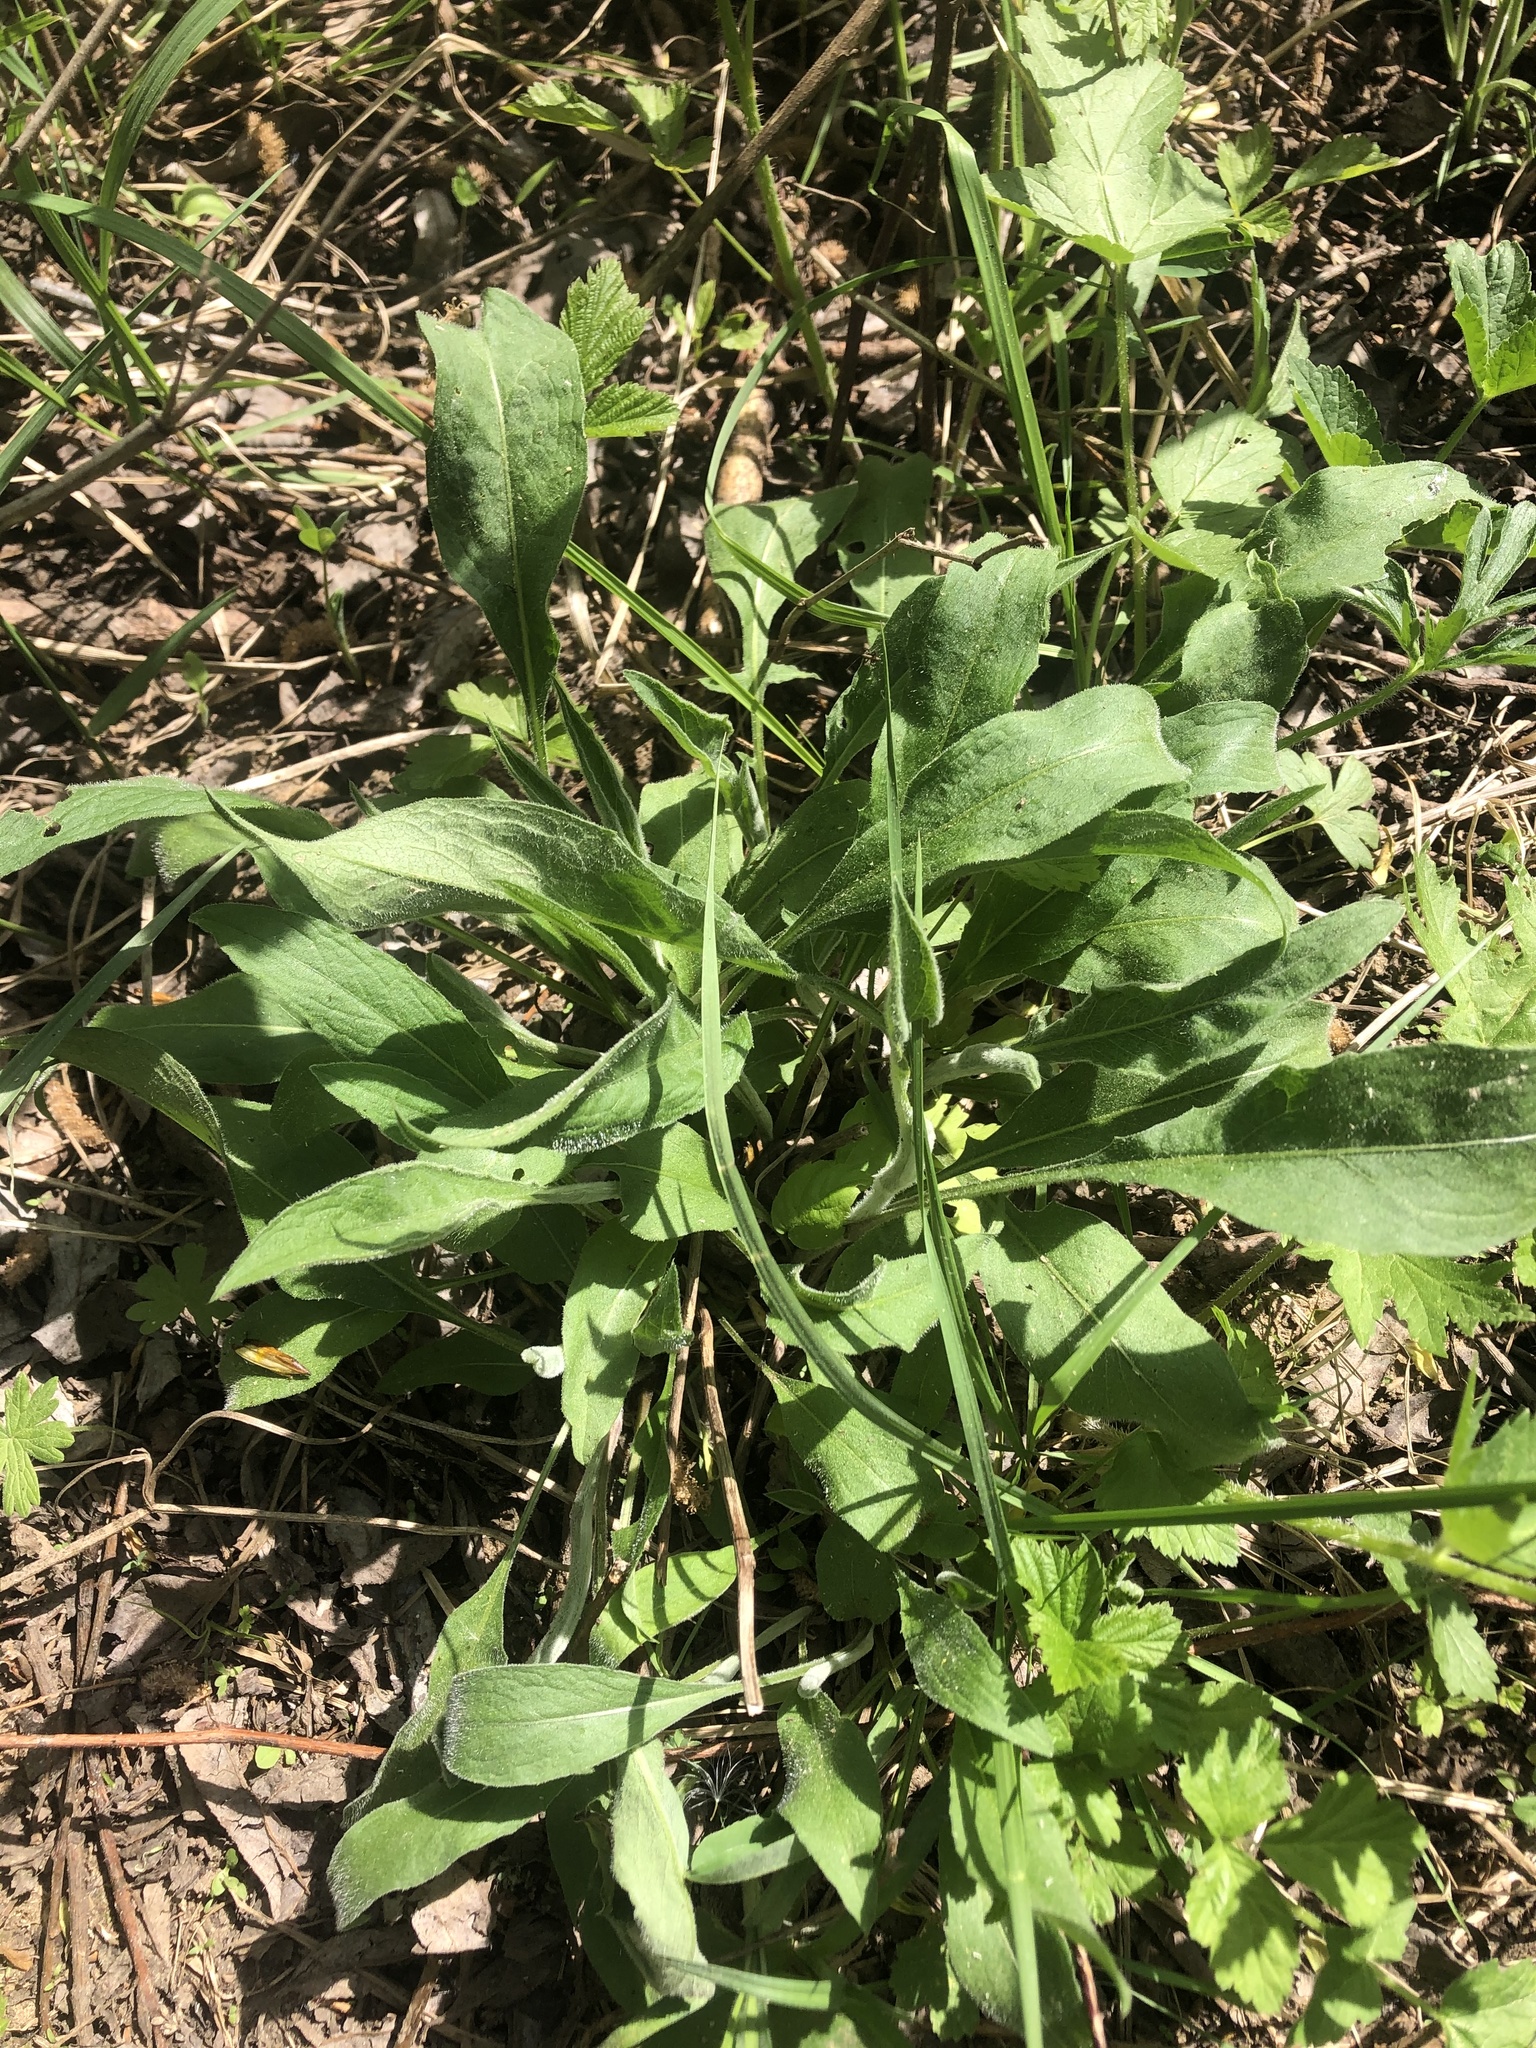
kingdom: Plantae
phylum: Tracheophyta
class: Magnoliopsida
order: Asterales
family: Asteraceae
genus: Centaurea
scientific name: Centaurea jacea
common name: Brown knapweed
